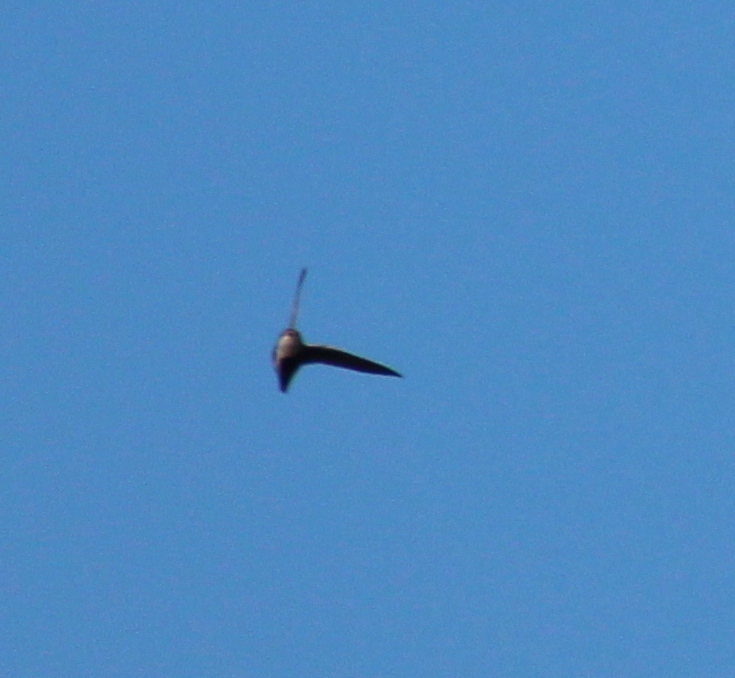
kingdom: Animalia
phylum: Chordata
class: Aves
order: Apodiformes
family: Apodidae
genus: Aeronautes
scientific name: Aeronautes saxatalis
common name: White-throated swift
